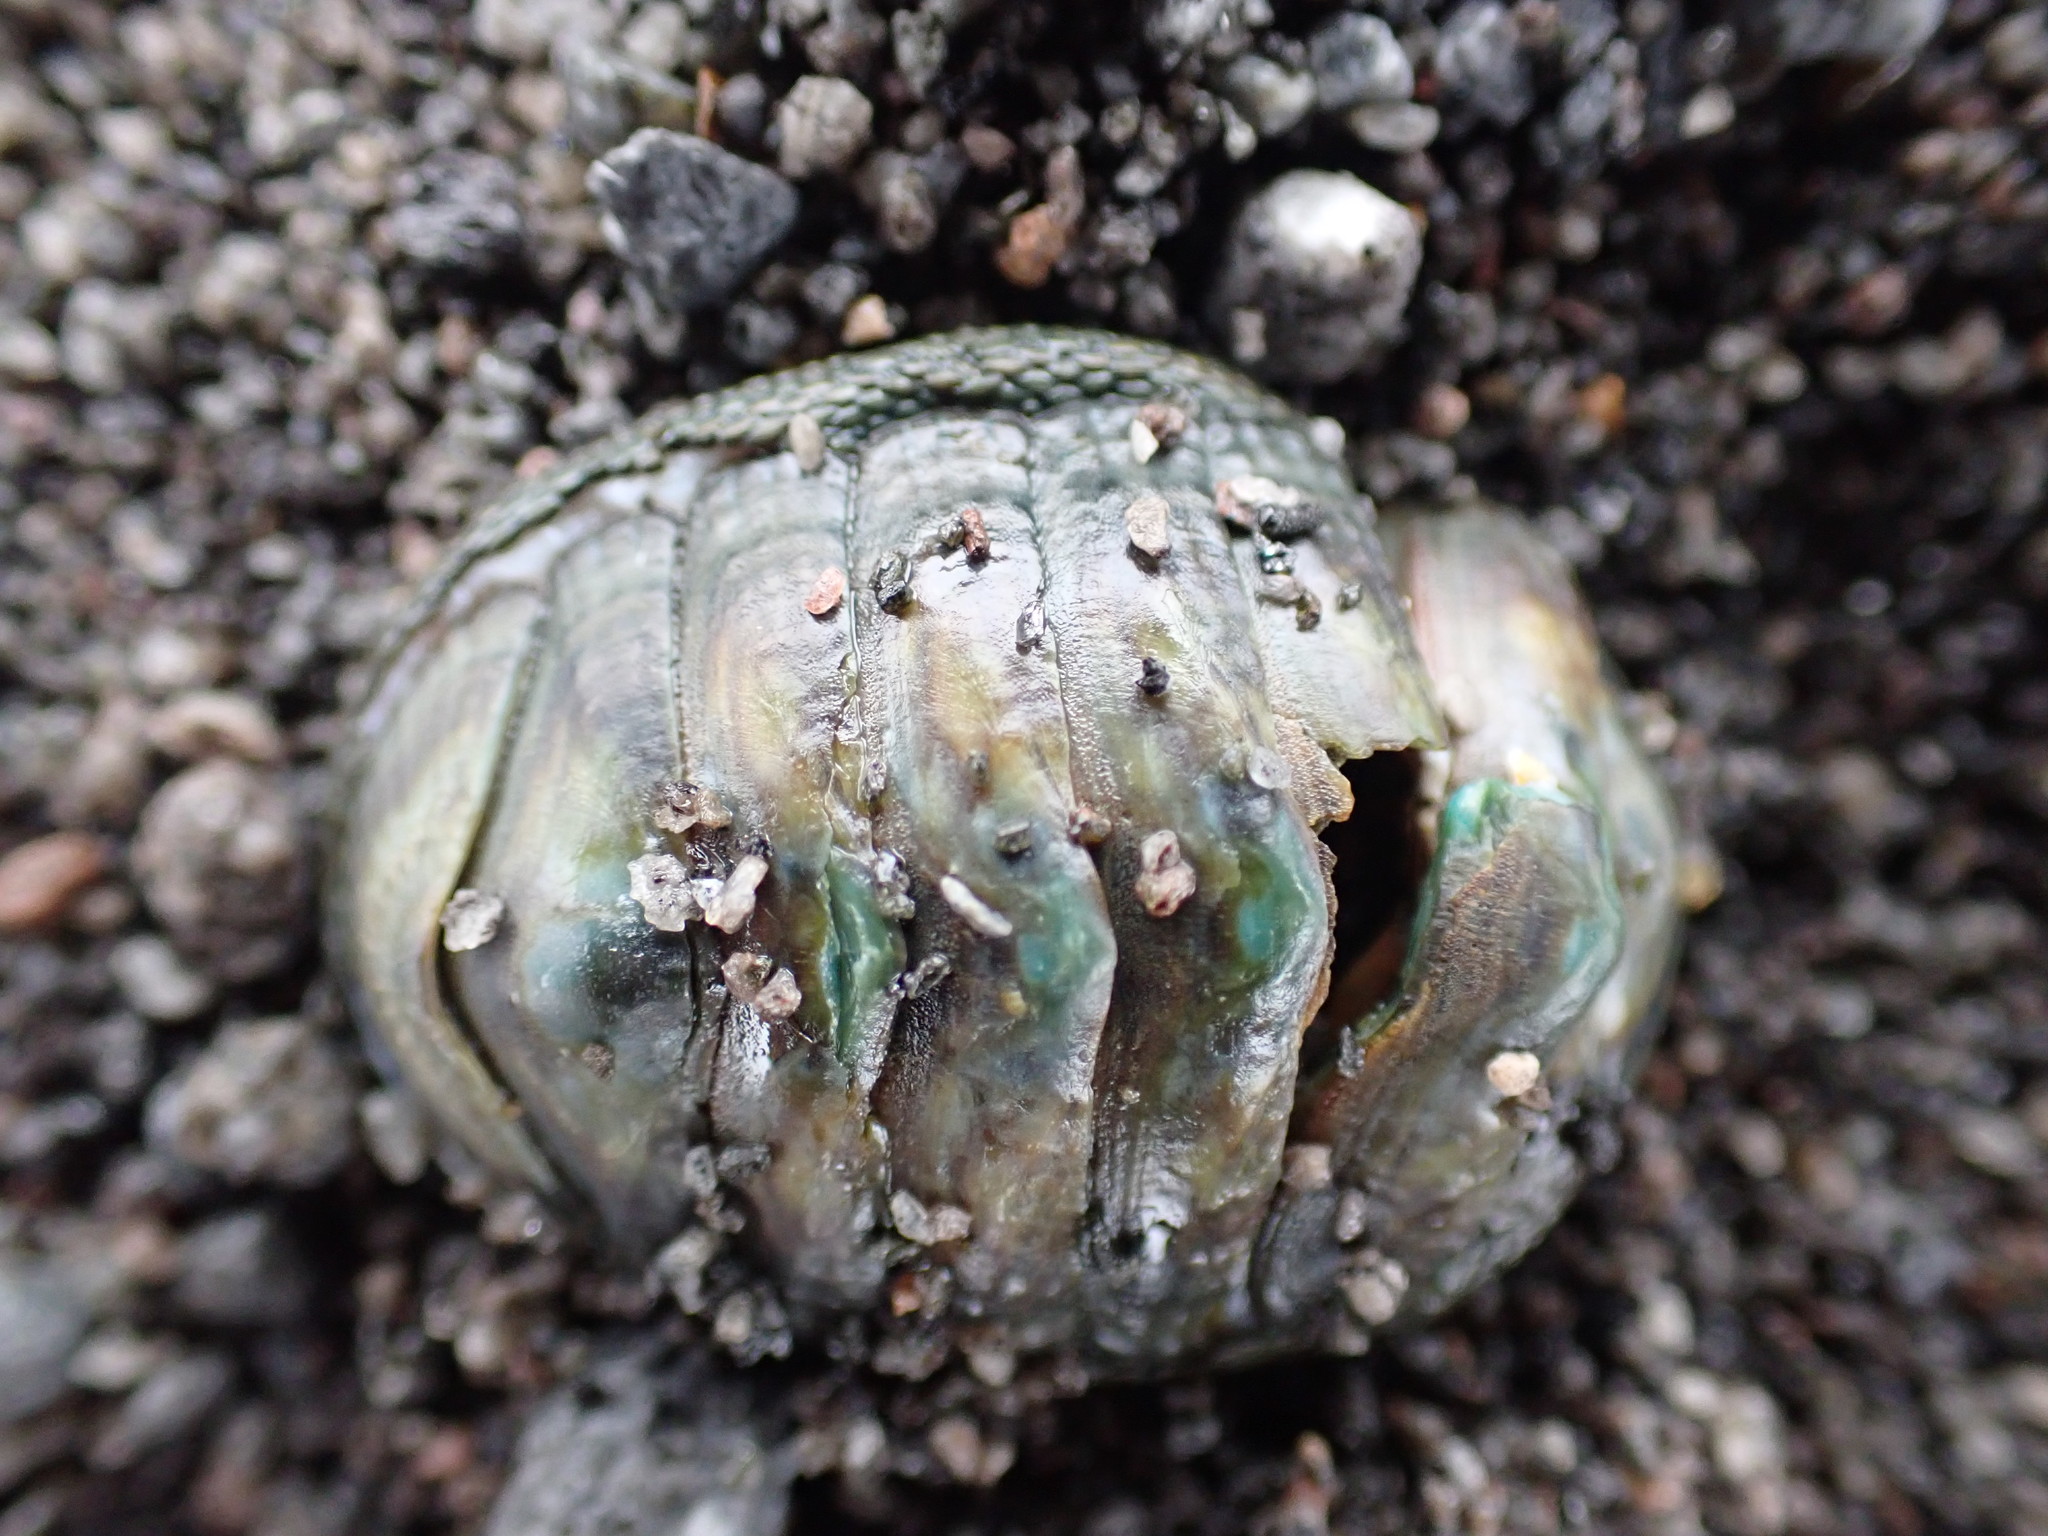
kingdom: Animalia
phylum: Mollusca
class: Polyplacophora
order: Chitonida
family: Chitonidae
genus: Chiton
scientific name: Chiton glaucus
